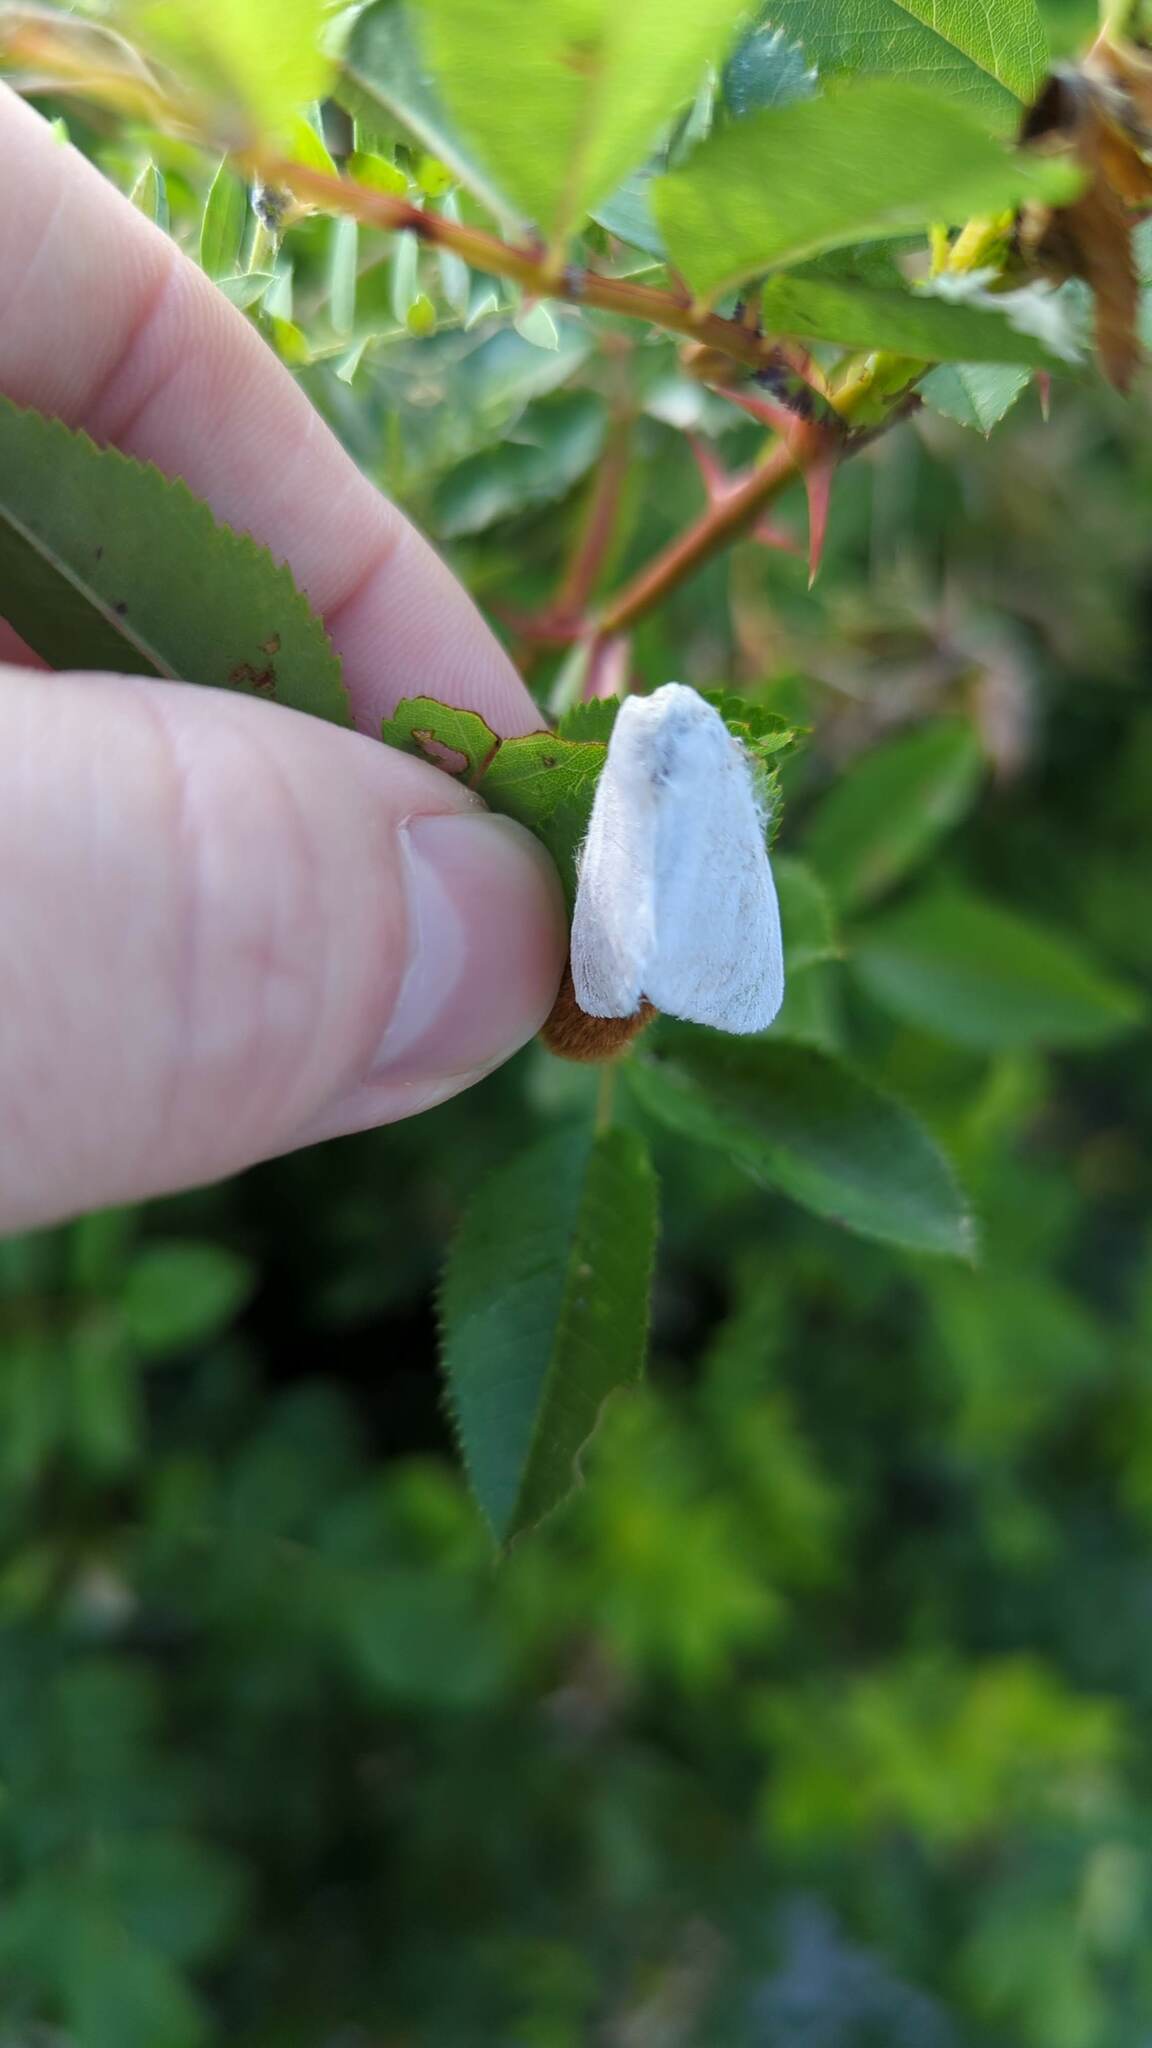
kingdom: Animalia
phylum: Arthropoda
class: Insecta
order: Lepidoptera
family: Erebidae
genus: Leucoma
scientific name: Leucoma salicis
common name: White satin moth
